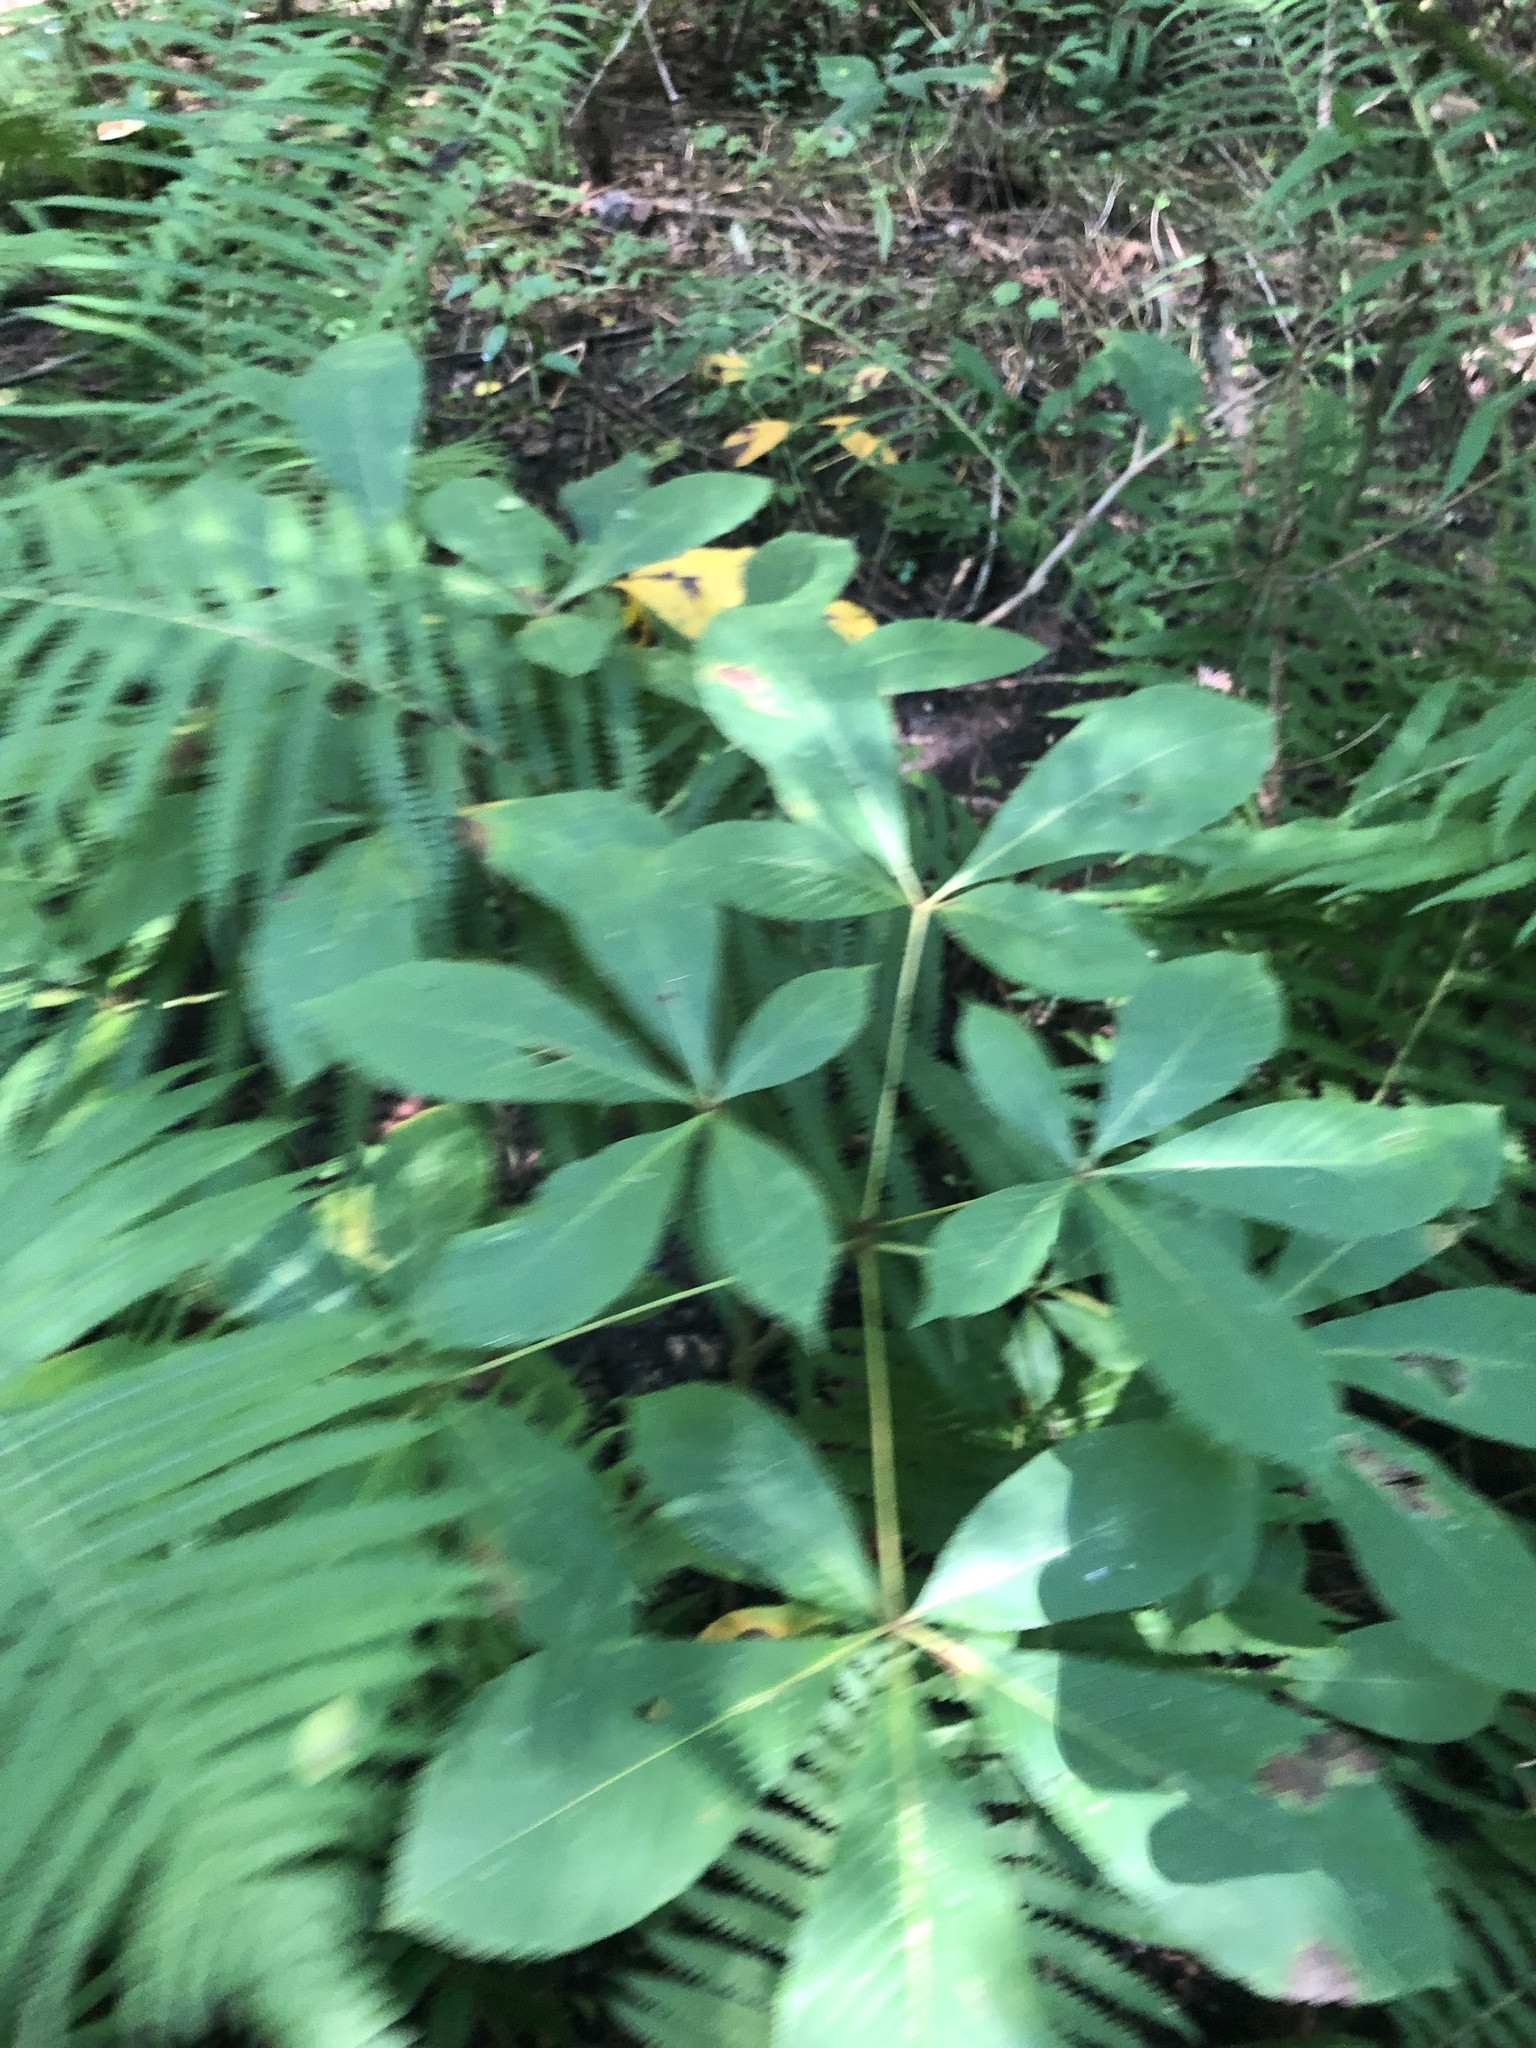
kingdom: Plantae
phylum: Tracheophyta
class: Magnoliopsida
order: Sapindales
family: Sapindaceae
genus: Aesculus
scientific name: Aesculus pavia
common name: Red buckeye
